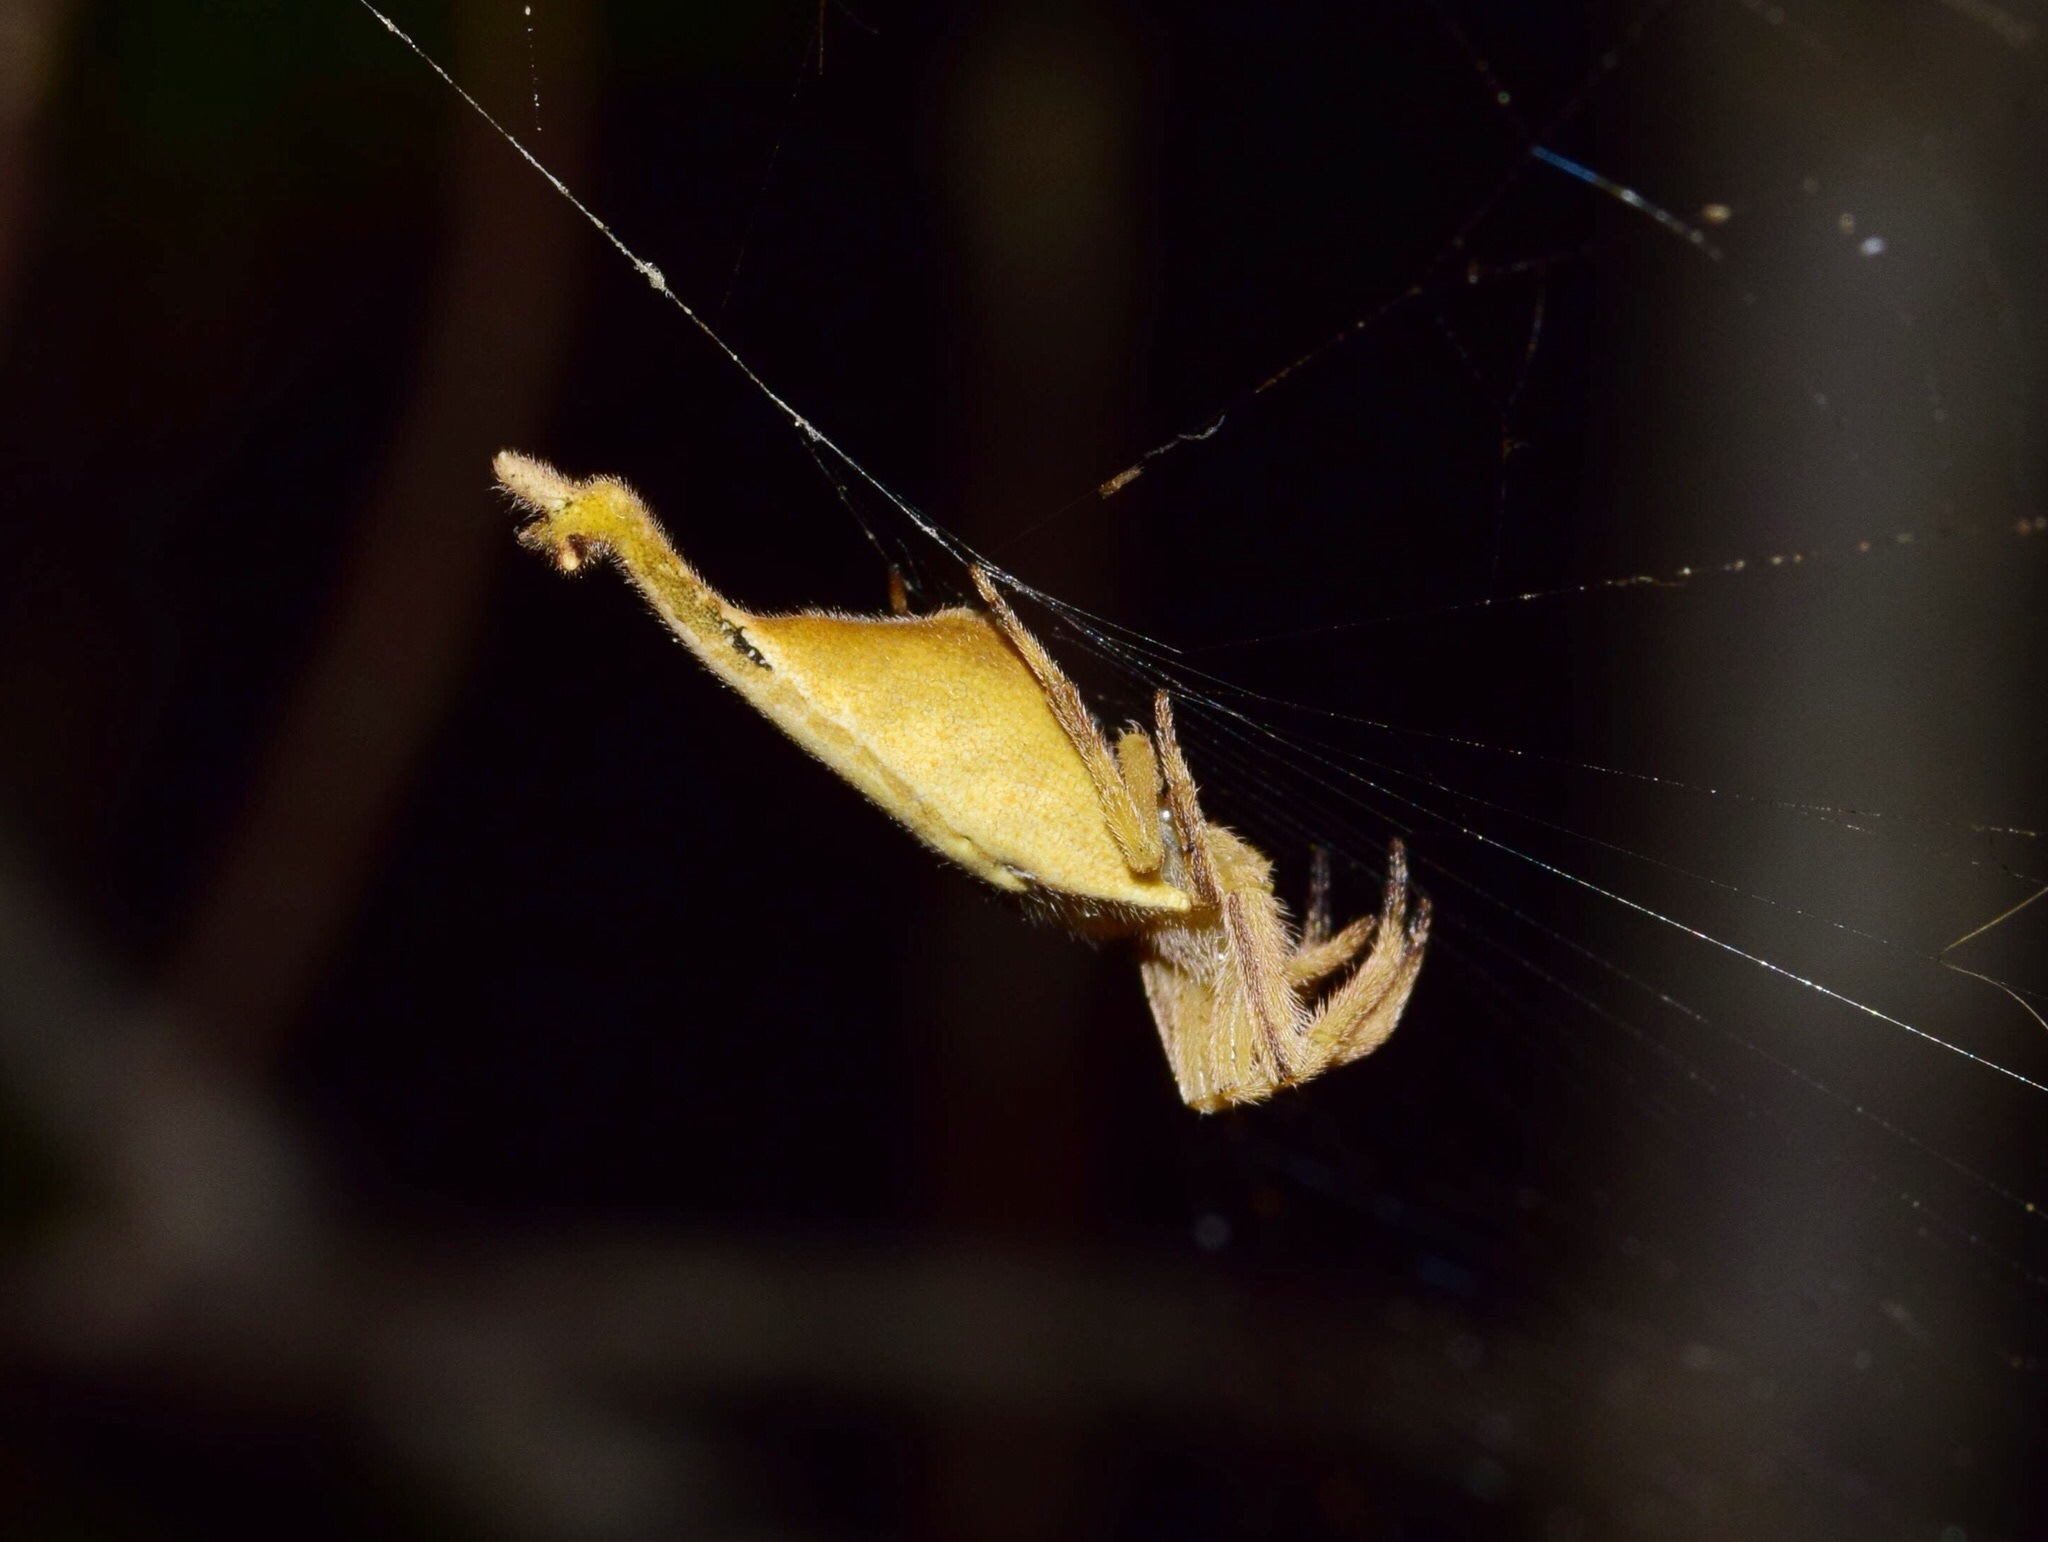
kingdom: Animalia
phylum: Arthropoda
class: Arachnida
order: Araneae
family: Araneidae
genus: Arachnura
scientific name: Arachnura scorpionoides
